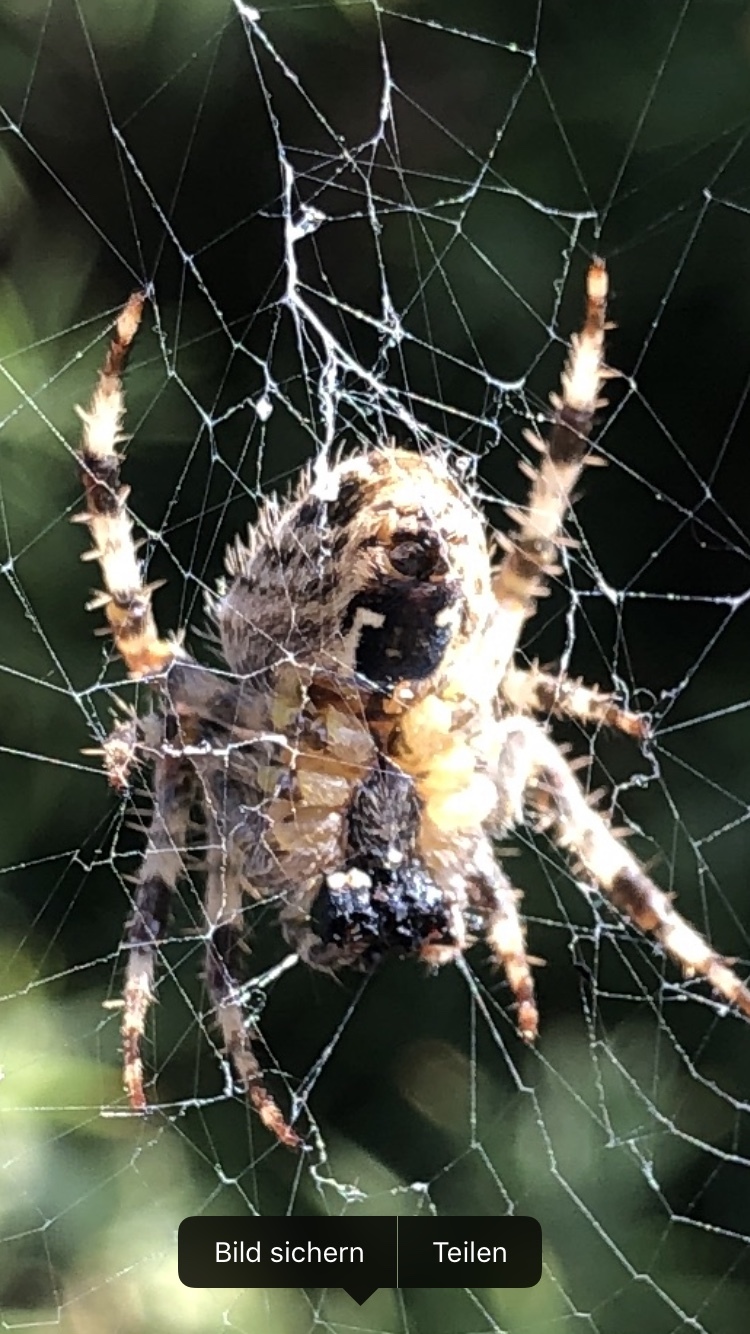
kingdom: Animalia
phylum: Arthropoda
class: Arachnida
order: Araneae
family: Araneidae
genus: Araneus
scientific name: Araneus diadematus
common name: Cross orbweaver
